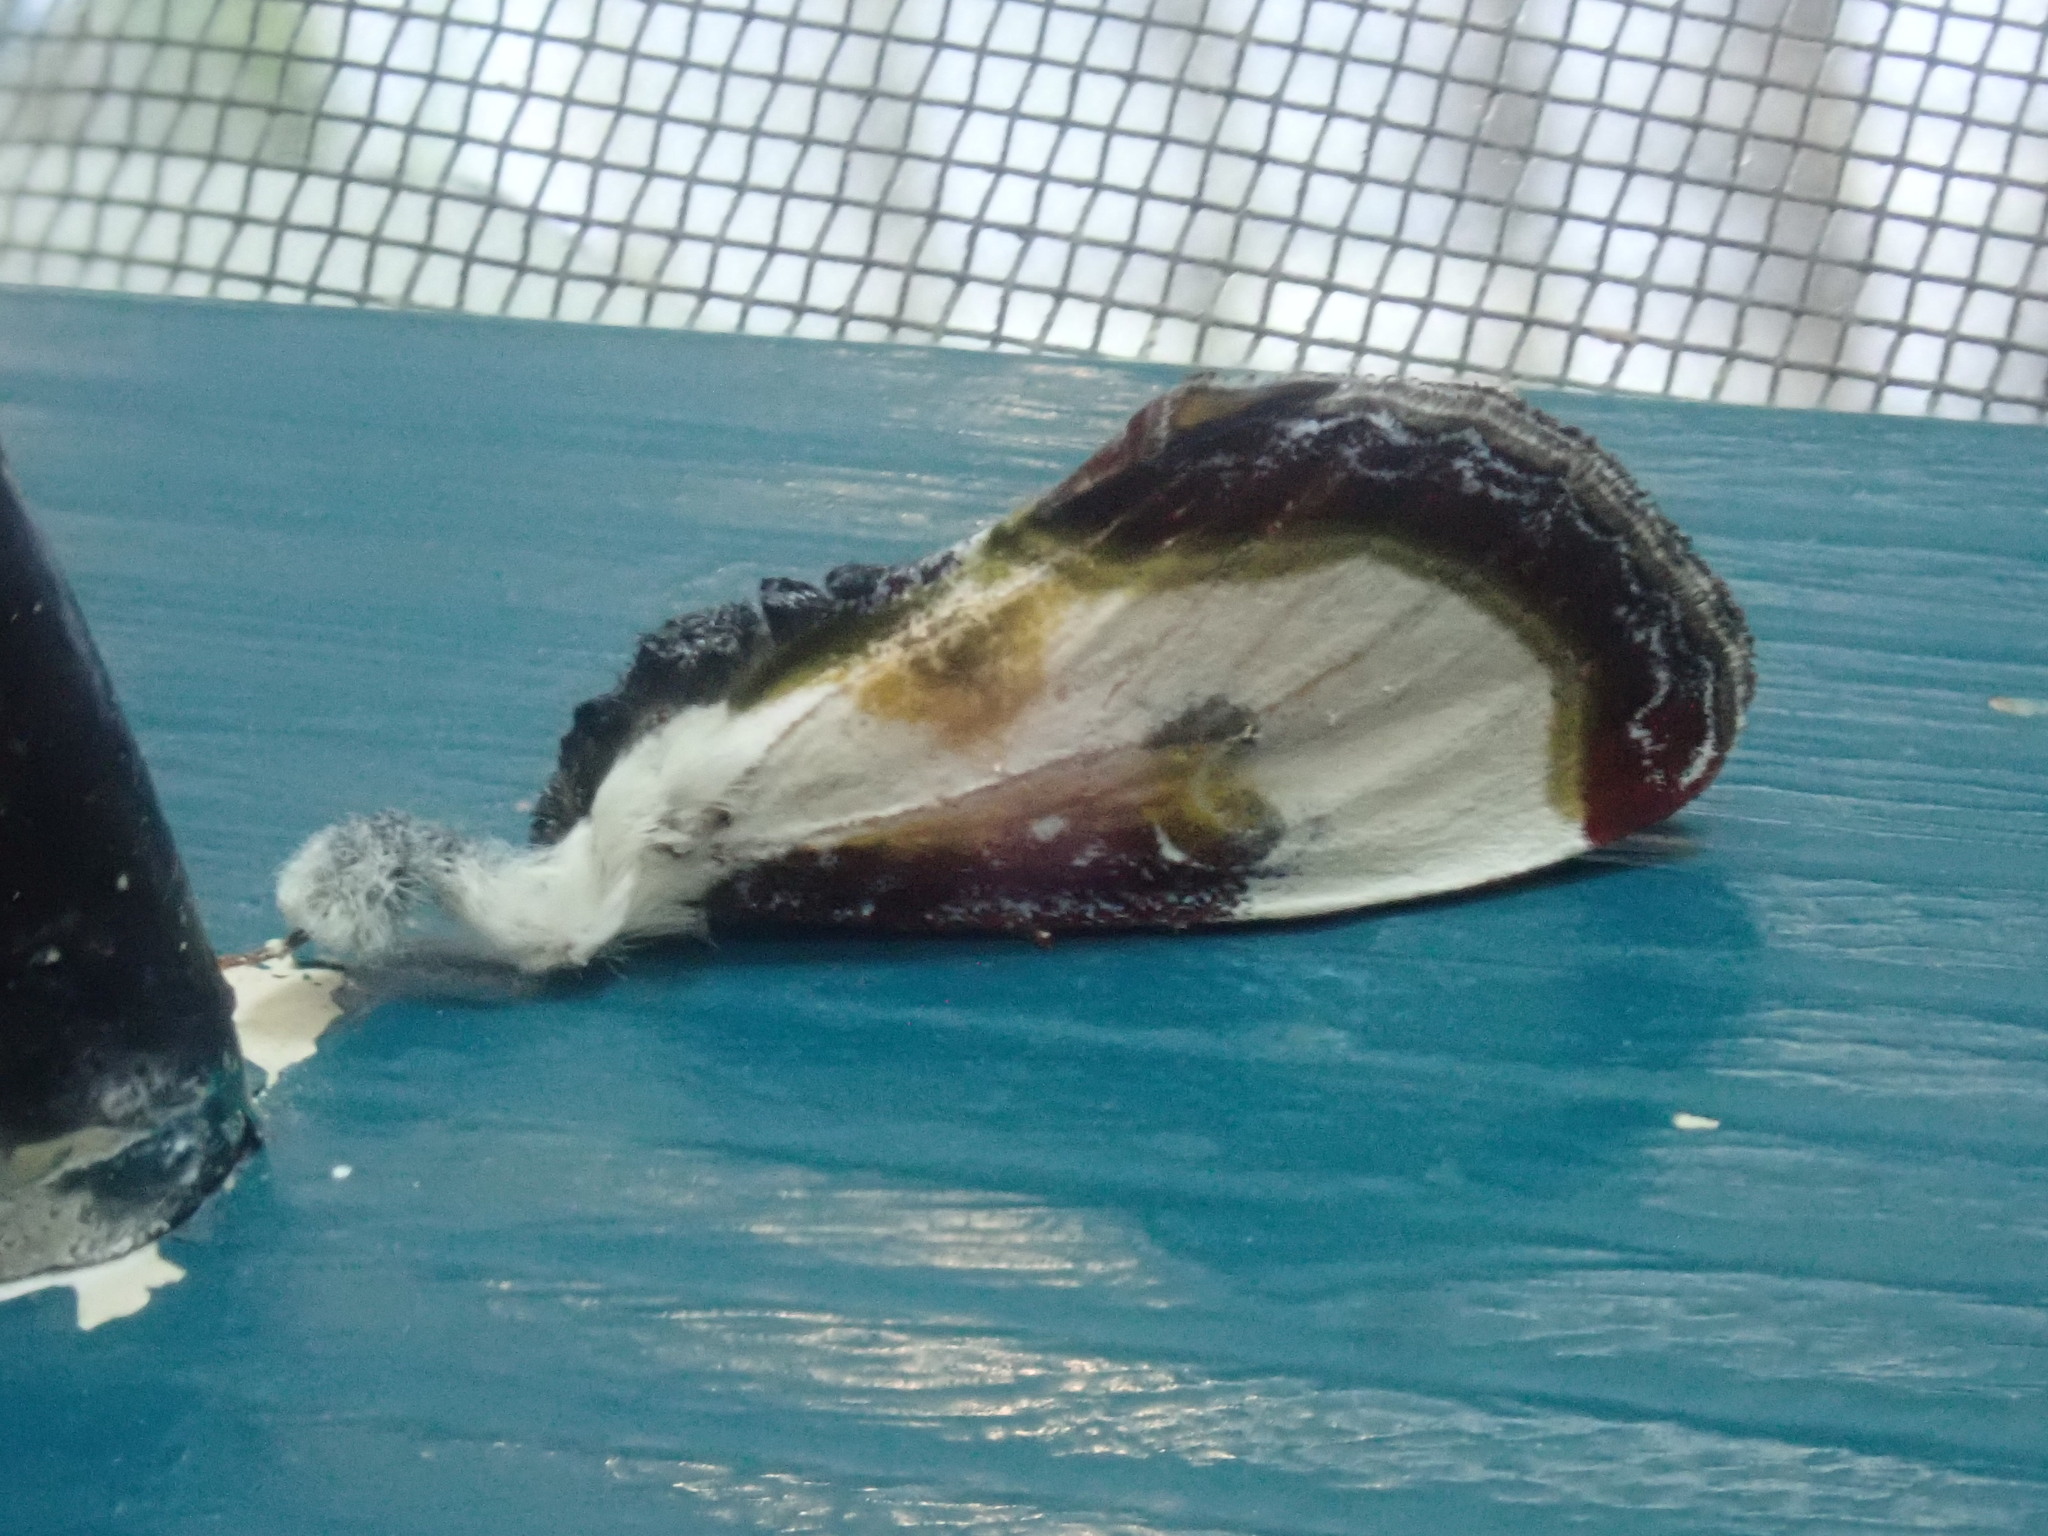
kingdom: Animalia
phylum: Arthropoda
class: Insecta
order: Lepidoptera
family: Noctuidae
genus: Eudryas
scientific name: Eudryas grata
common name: Beautiful wood-nymph
